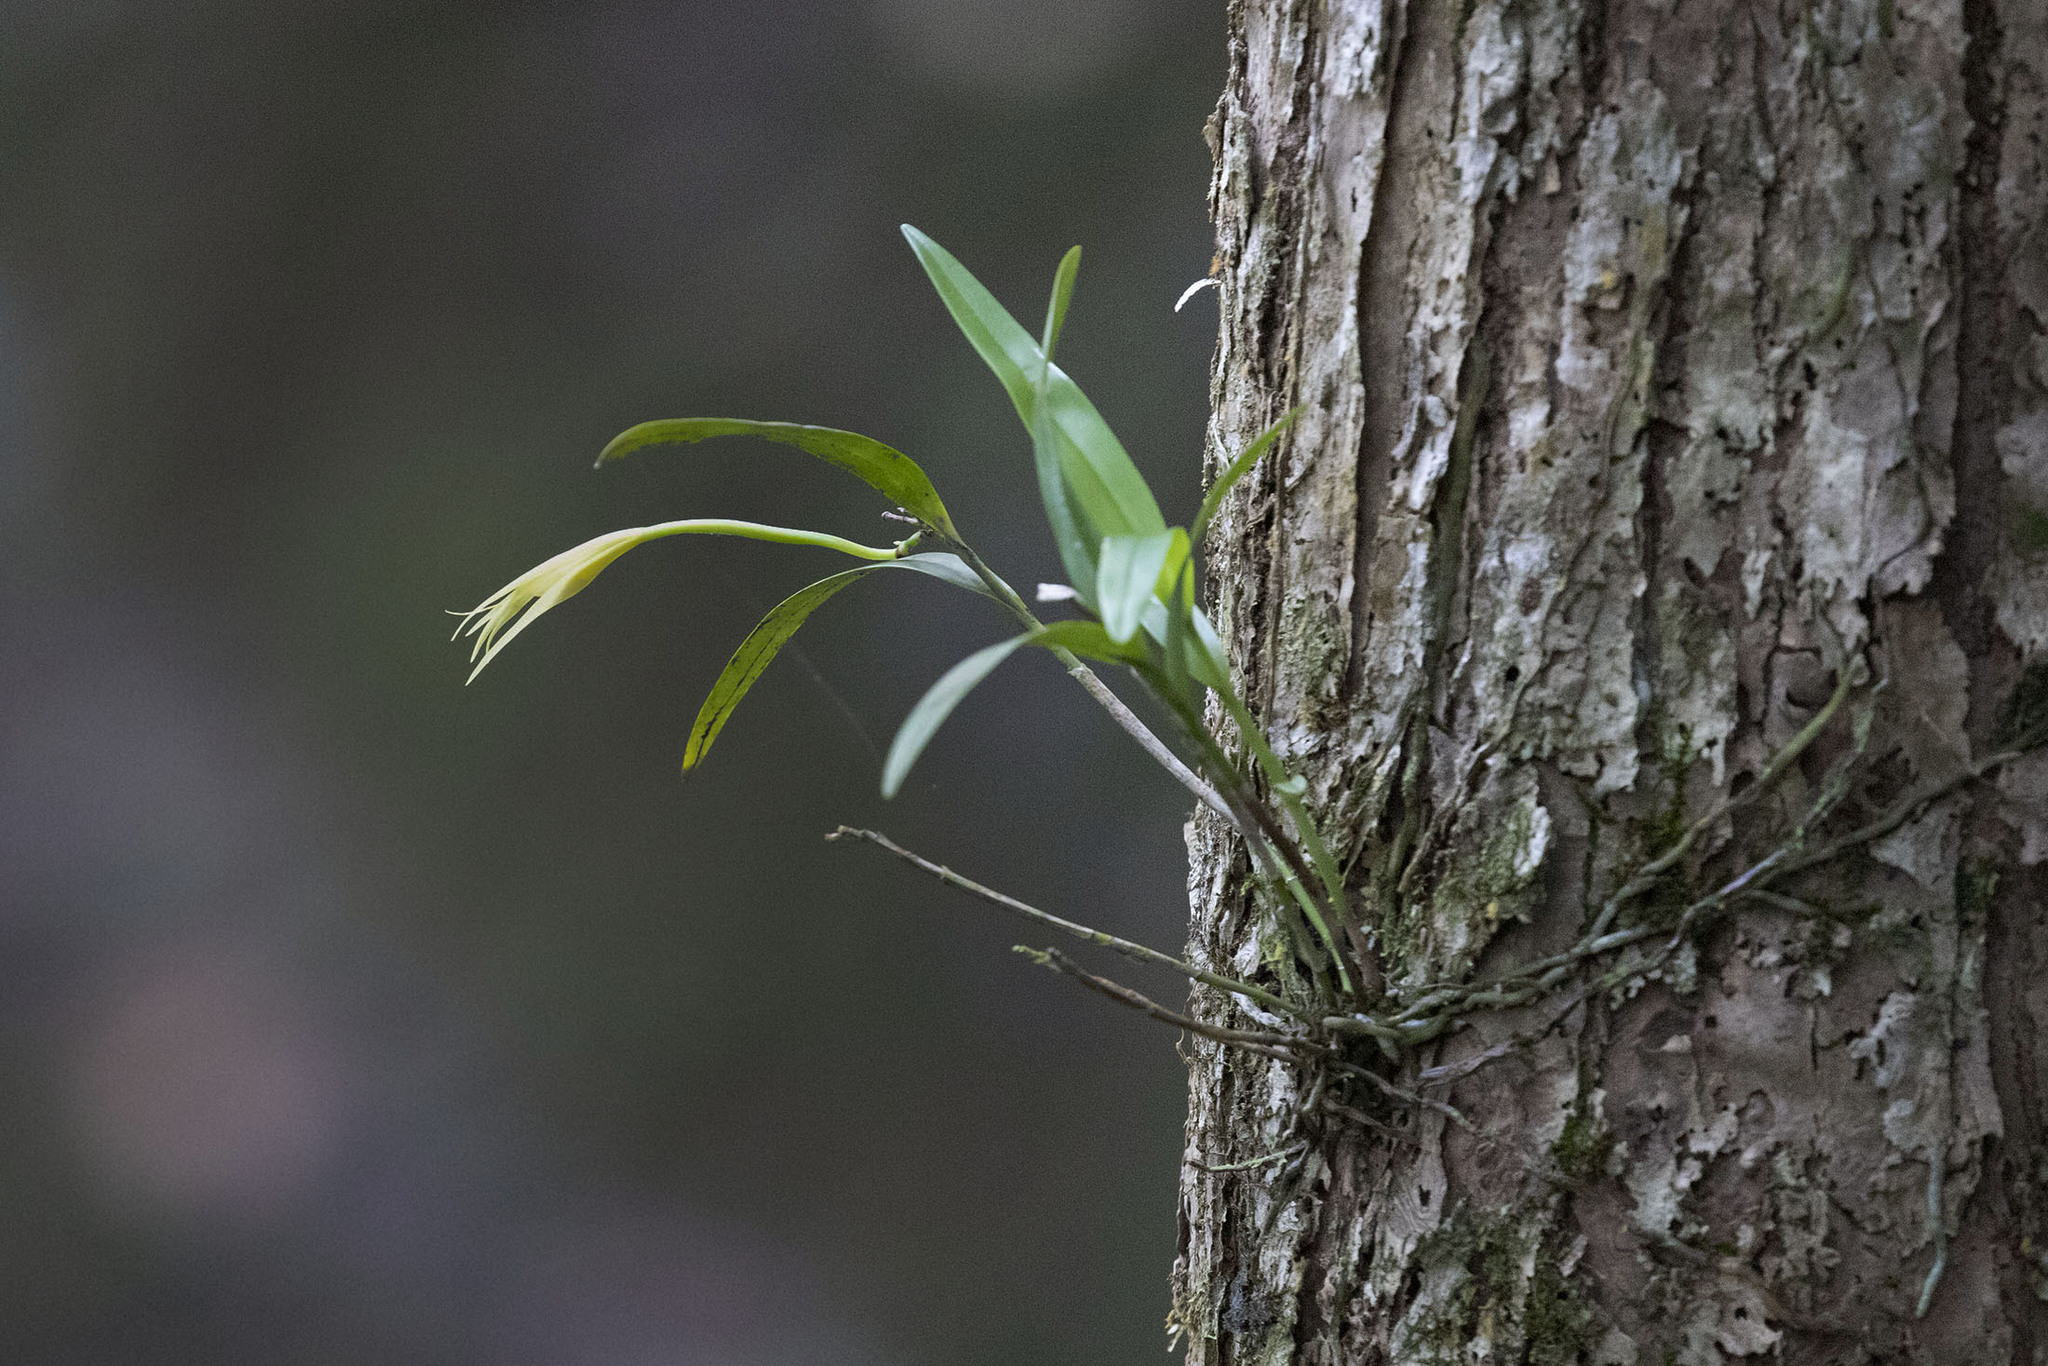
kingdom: Plantae
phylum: Tracheophyta
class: Liliopsida
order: Asparagales
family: Orchidaceae
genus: Epidendrum
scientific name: Epidendrum nocturnum
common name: Night scented orchid
